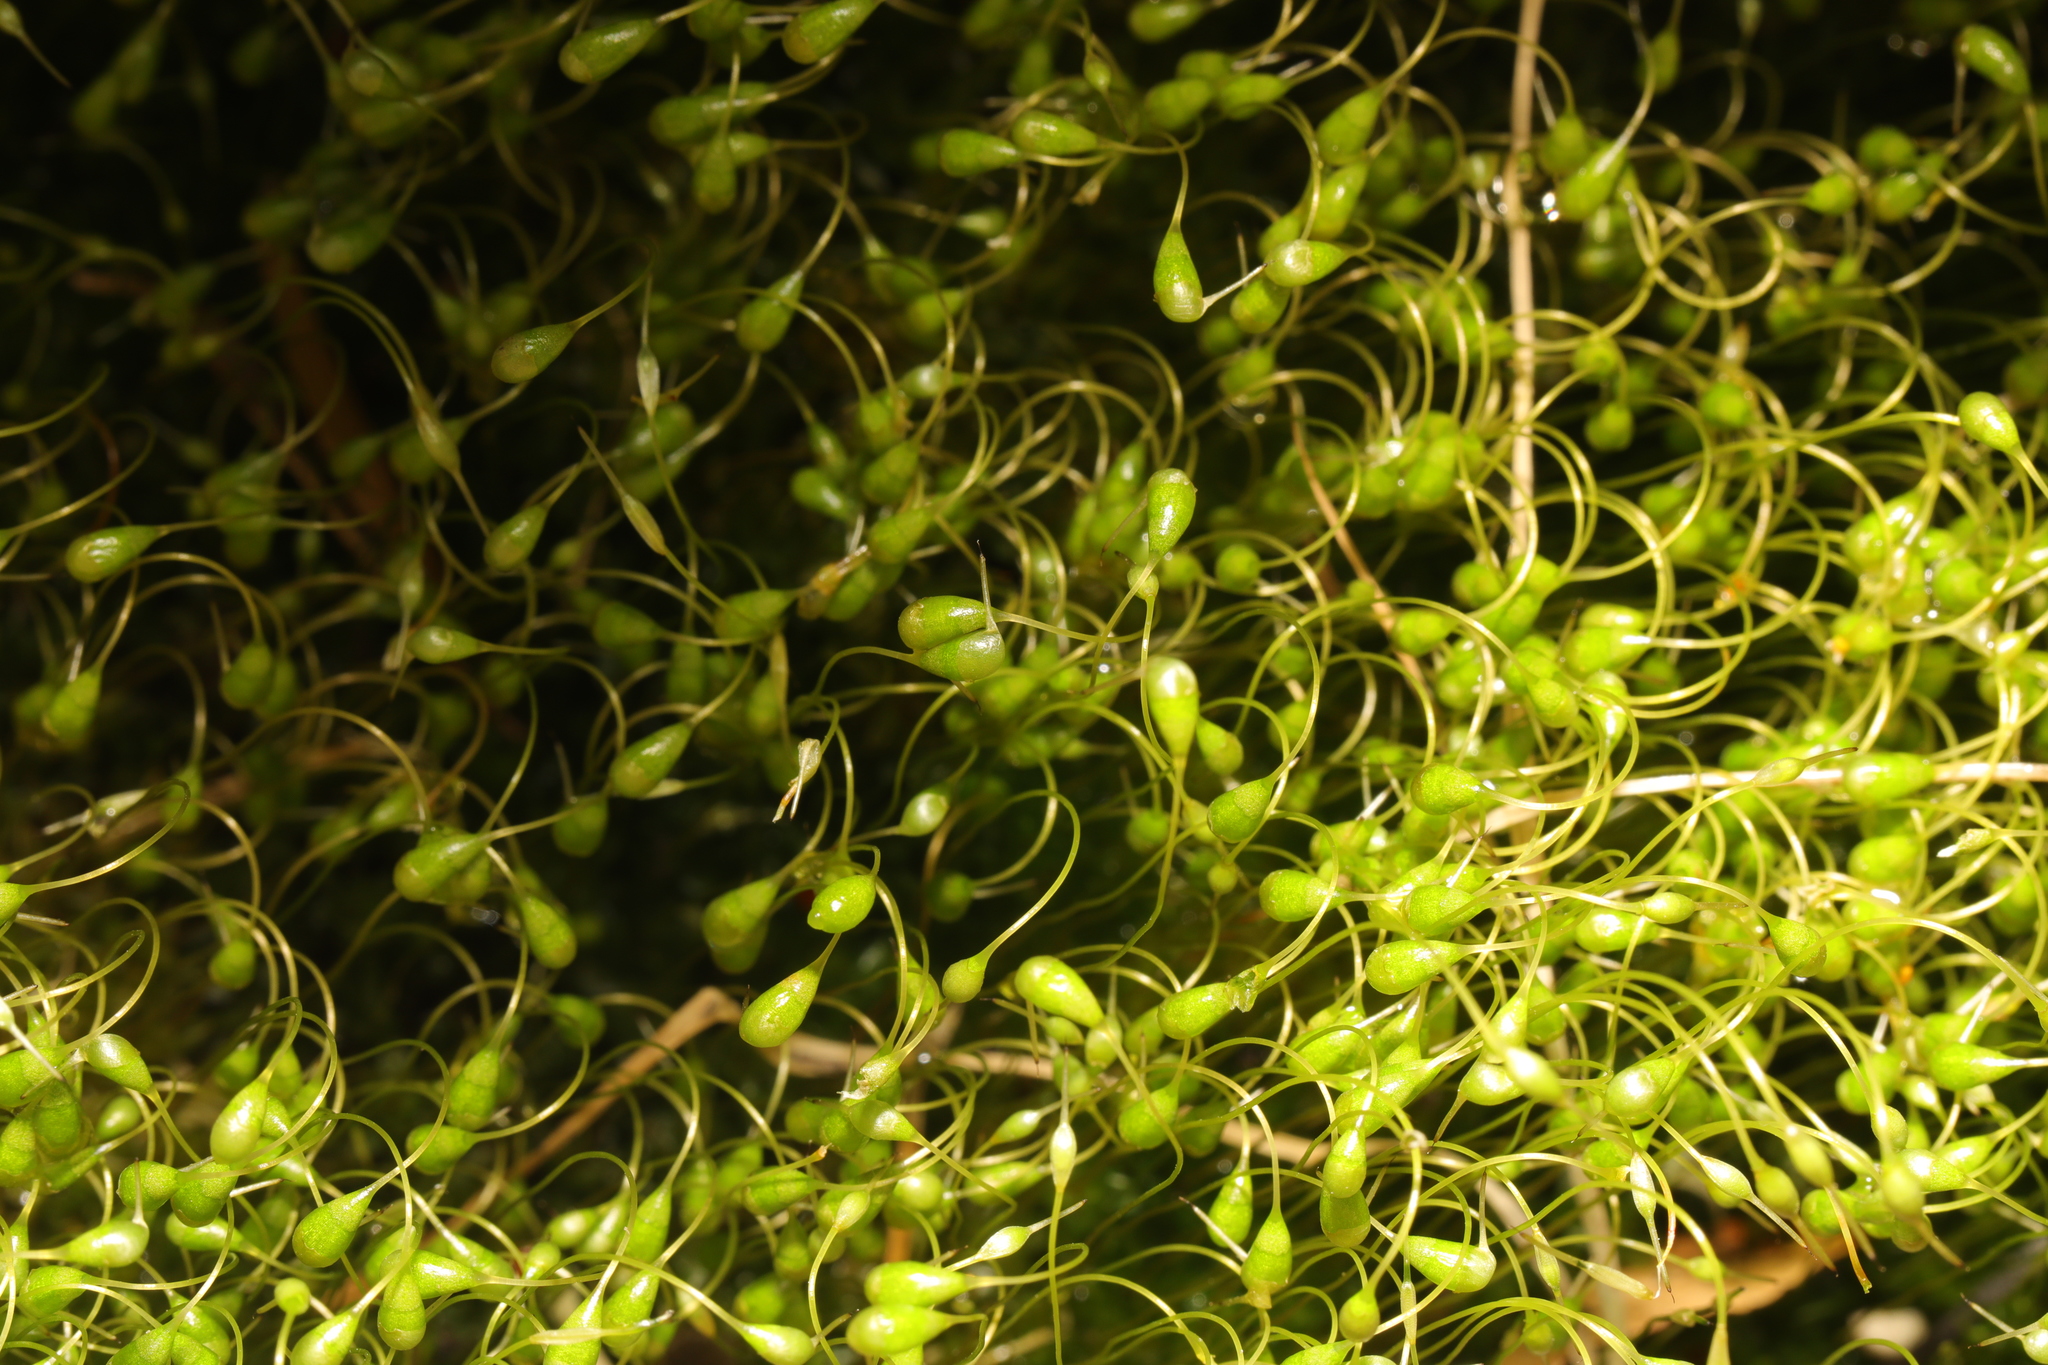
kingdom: Plantae
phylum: Bryophyta
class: Bryopsida
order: Funariales
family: Funariaceae
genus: Funaria
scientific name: Funaria hygrometrica
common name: Common cord moss
